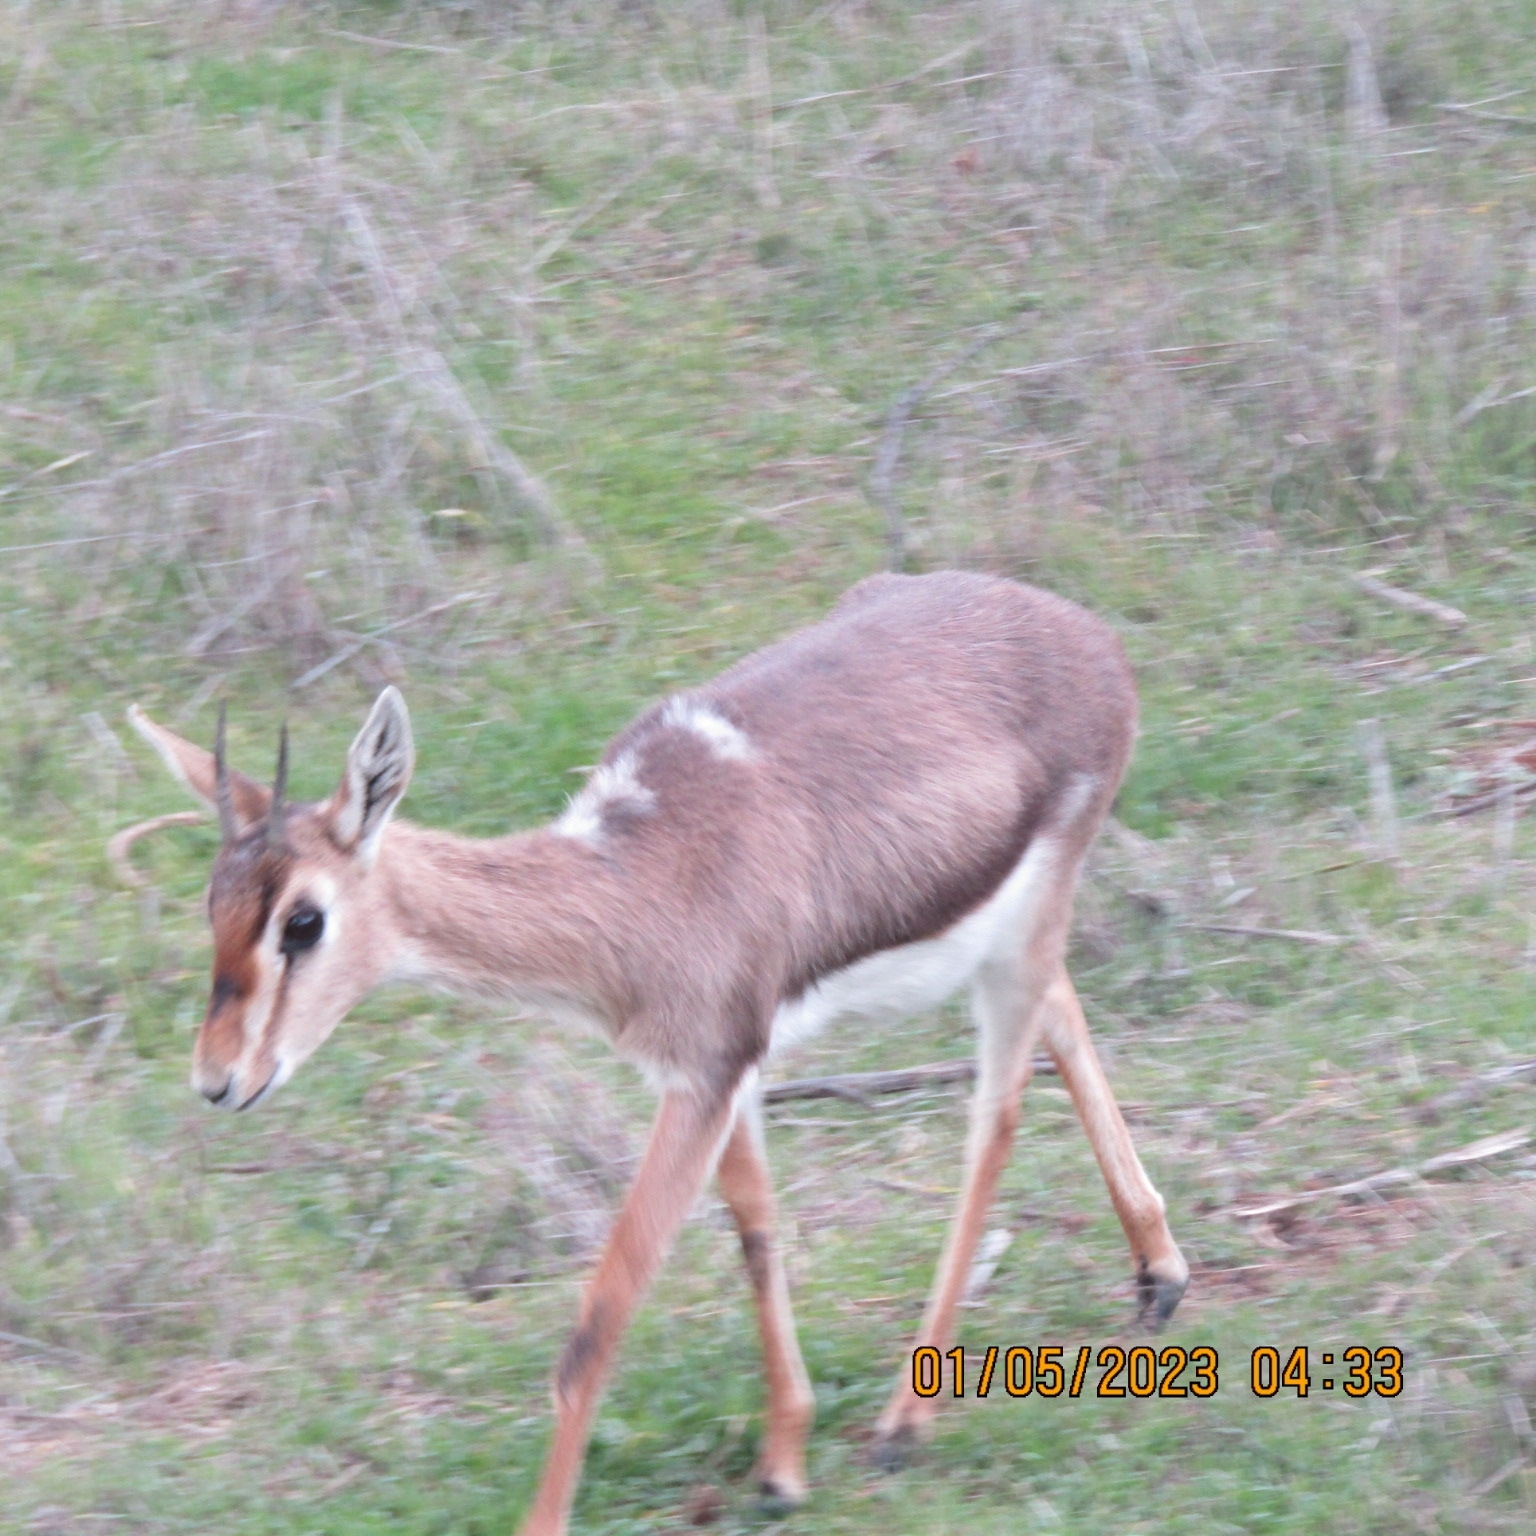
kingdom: Animalia
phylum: Chordata
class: Mammalia
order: Artiodactyla
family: Bovidae
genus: Gazella
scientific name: Gazella gazella
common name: Mountain gazelle
